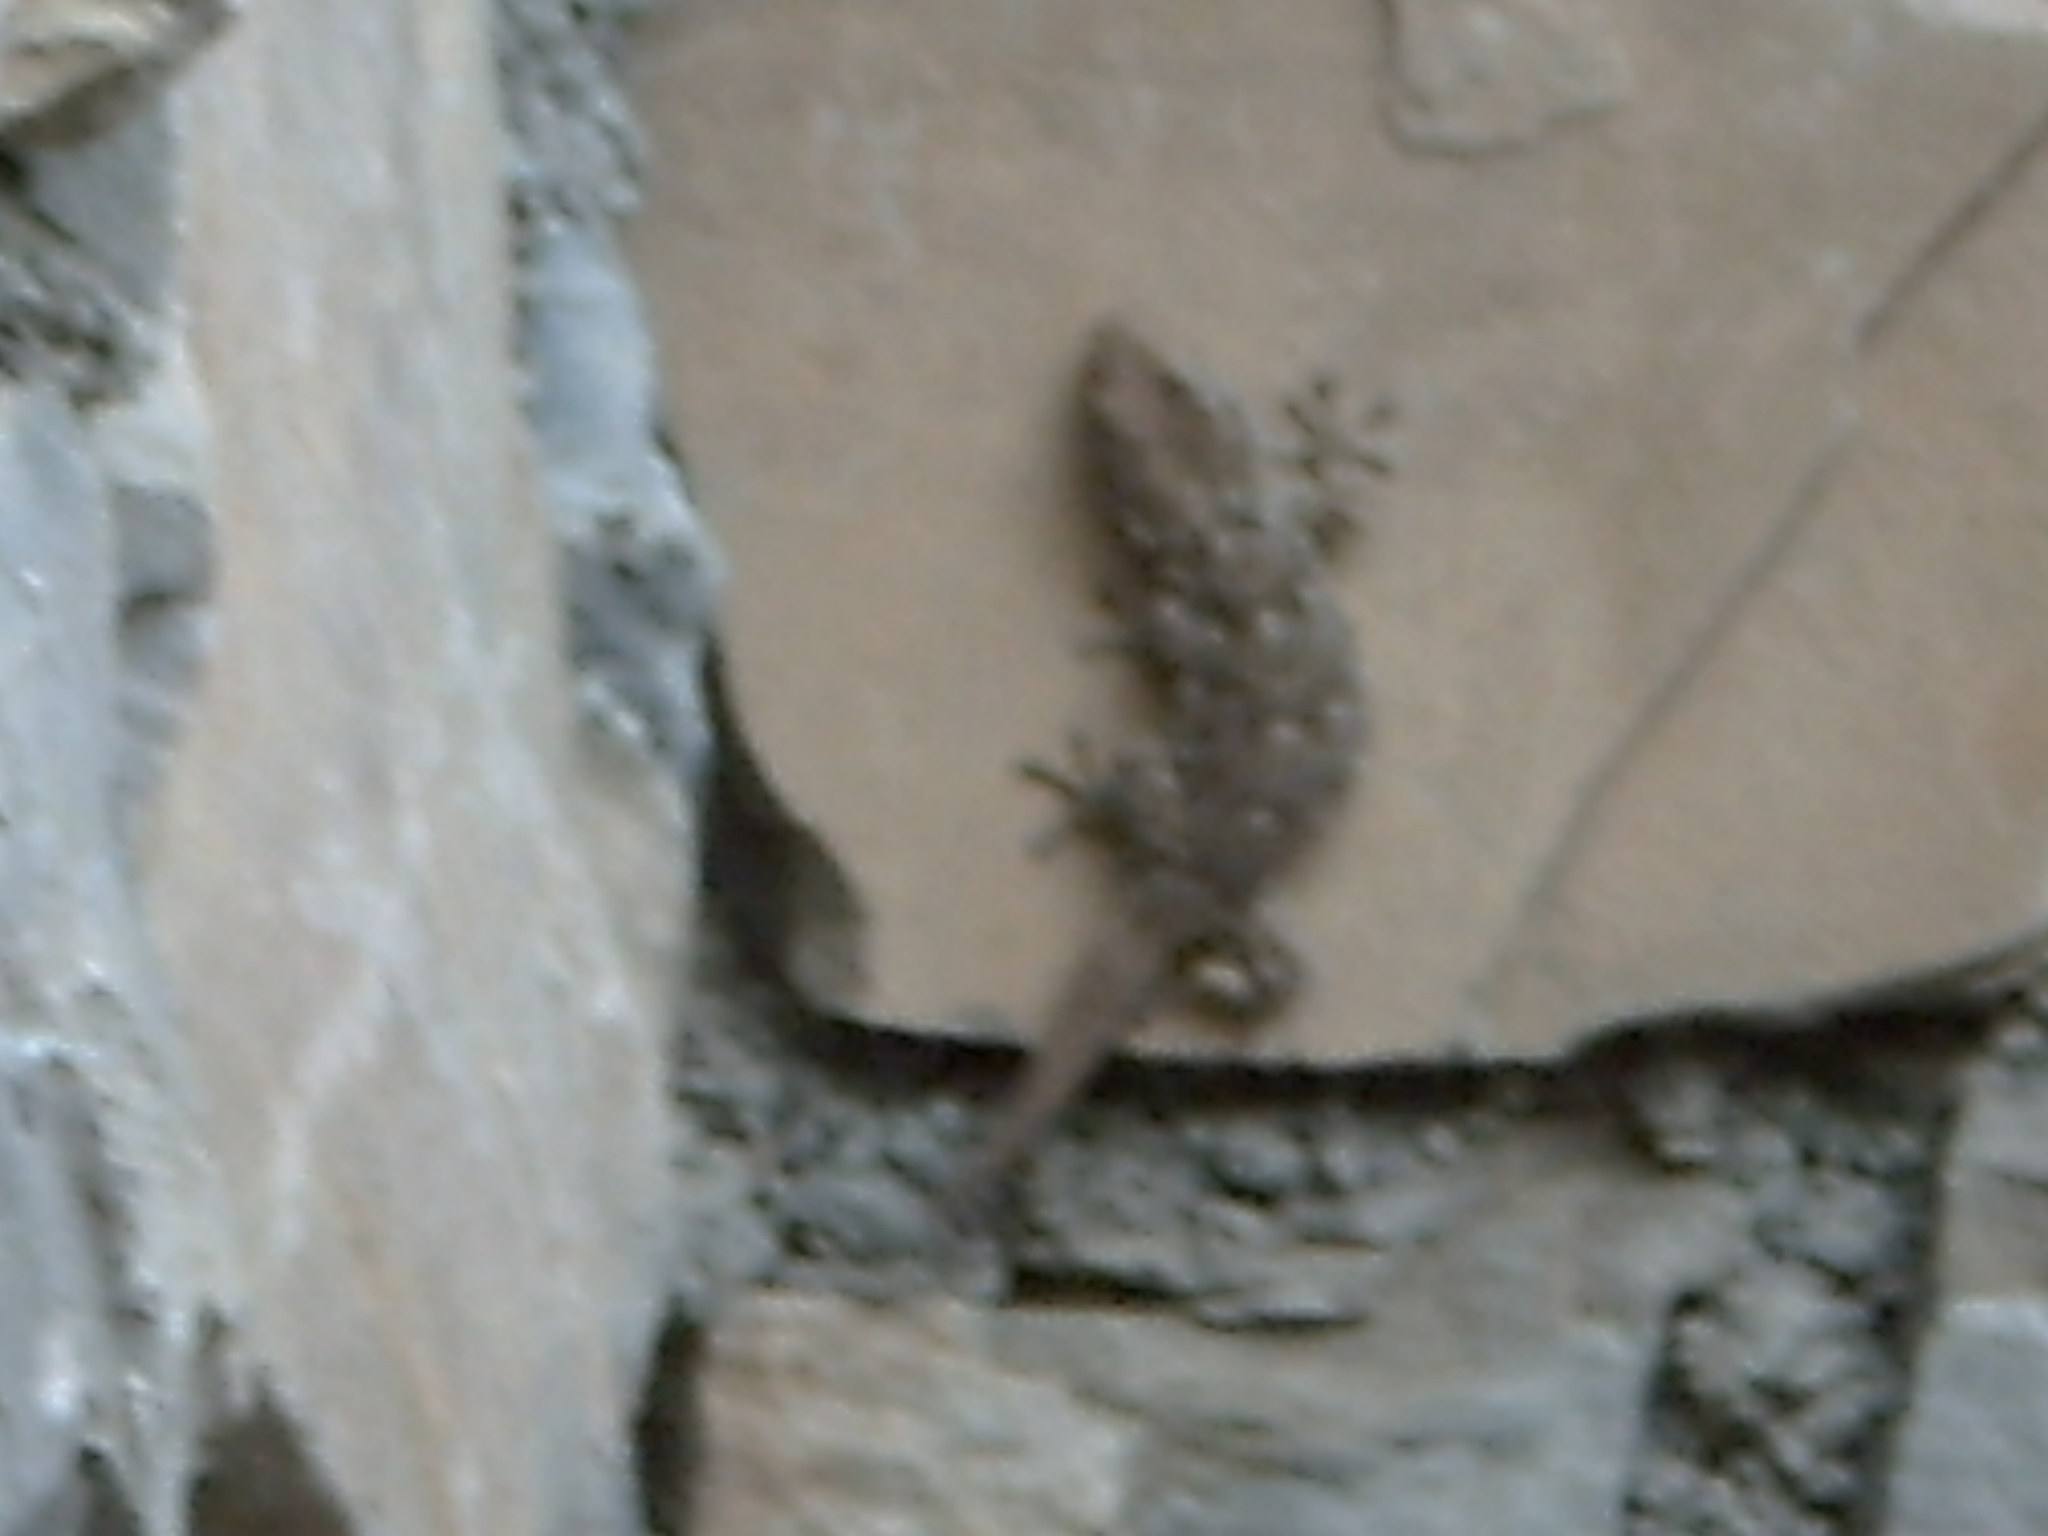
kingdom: Animalia
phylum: Chordata
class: Squamata
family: Phyllodactylidae
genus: Tarentola
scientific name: Tarentola mauritanica
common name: Moorish gecko
